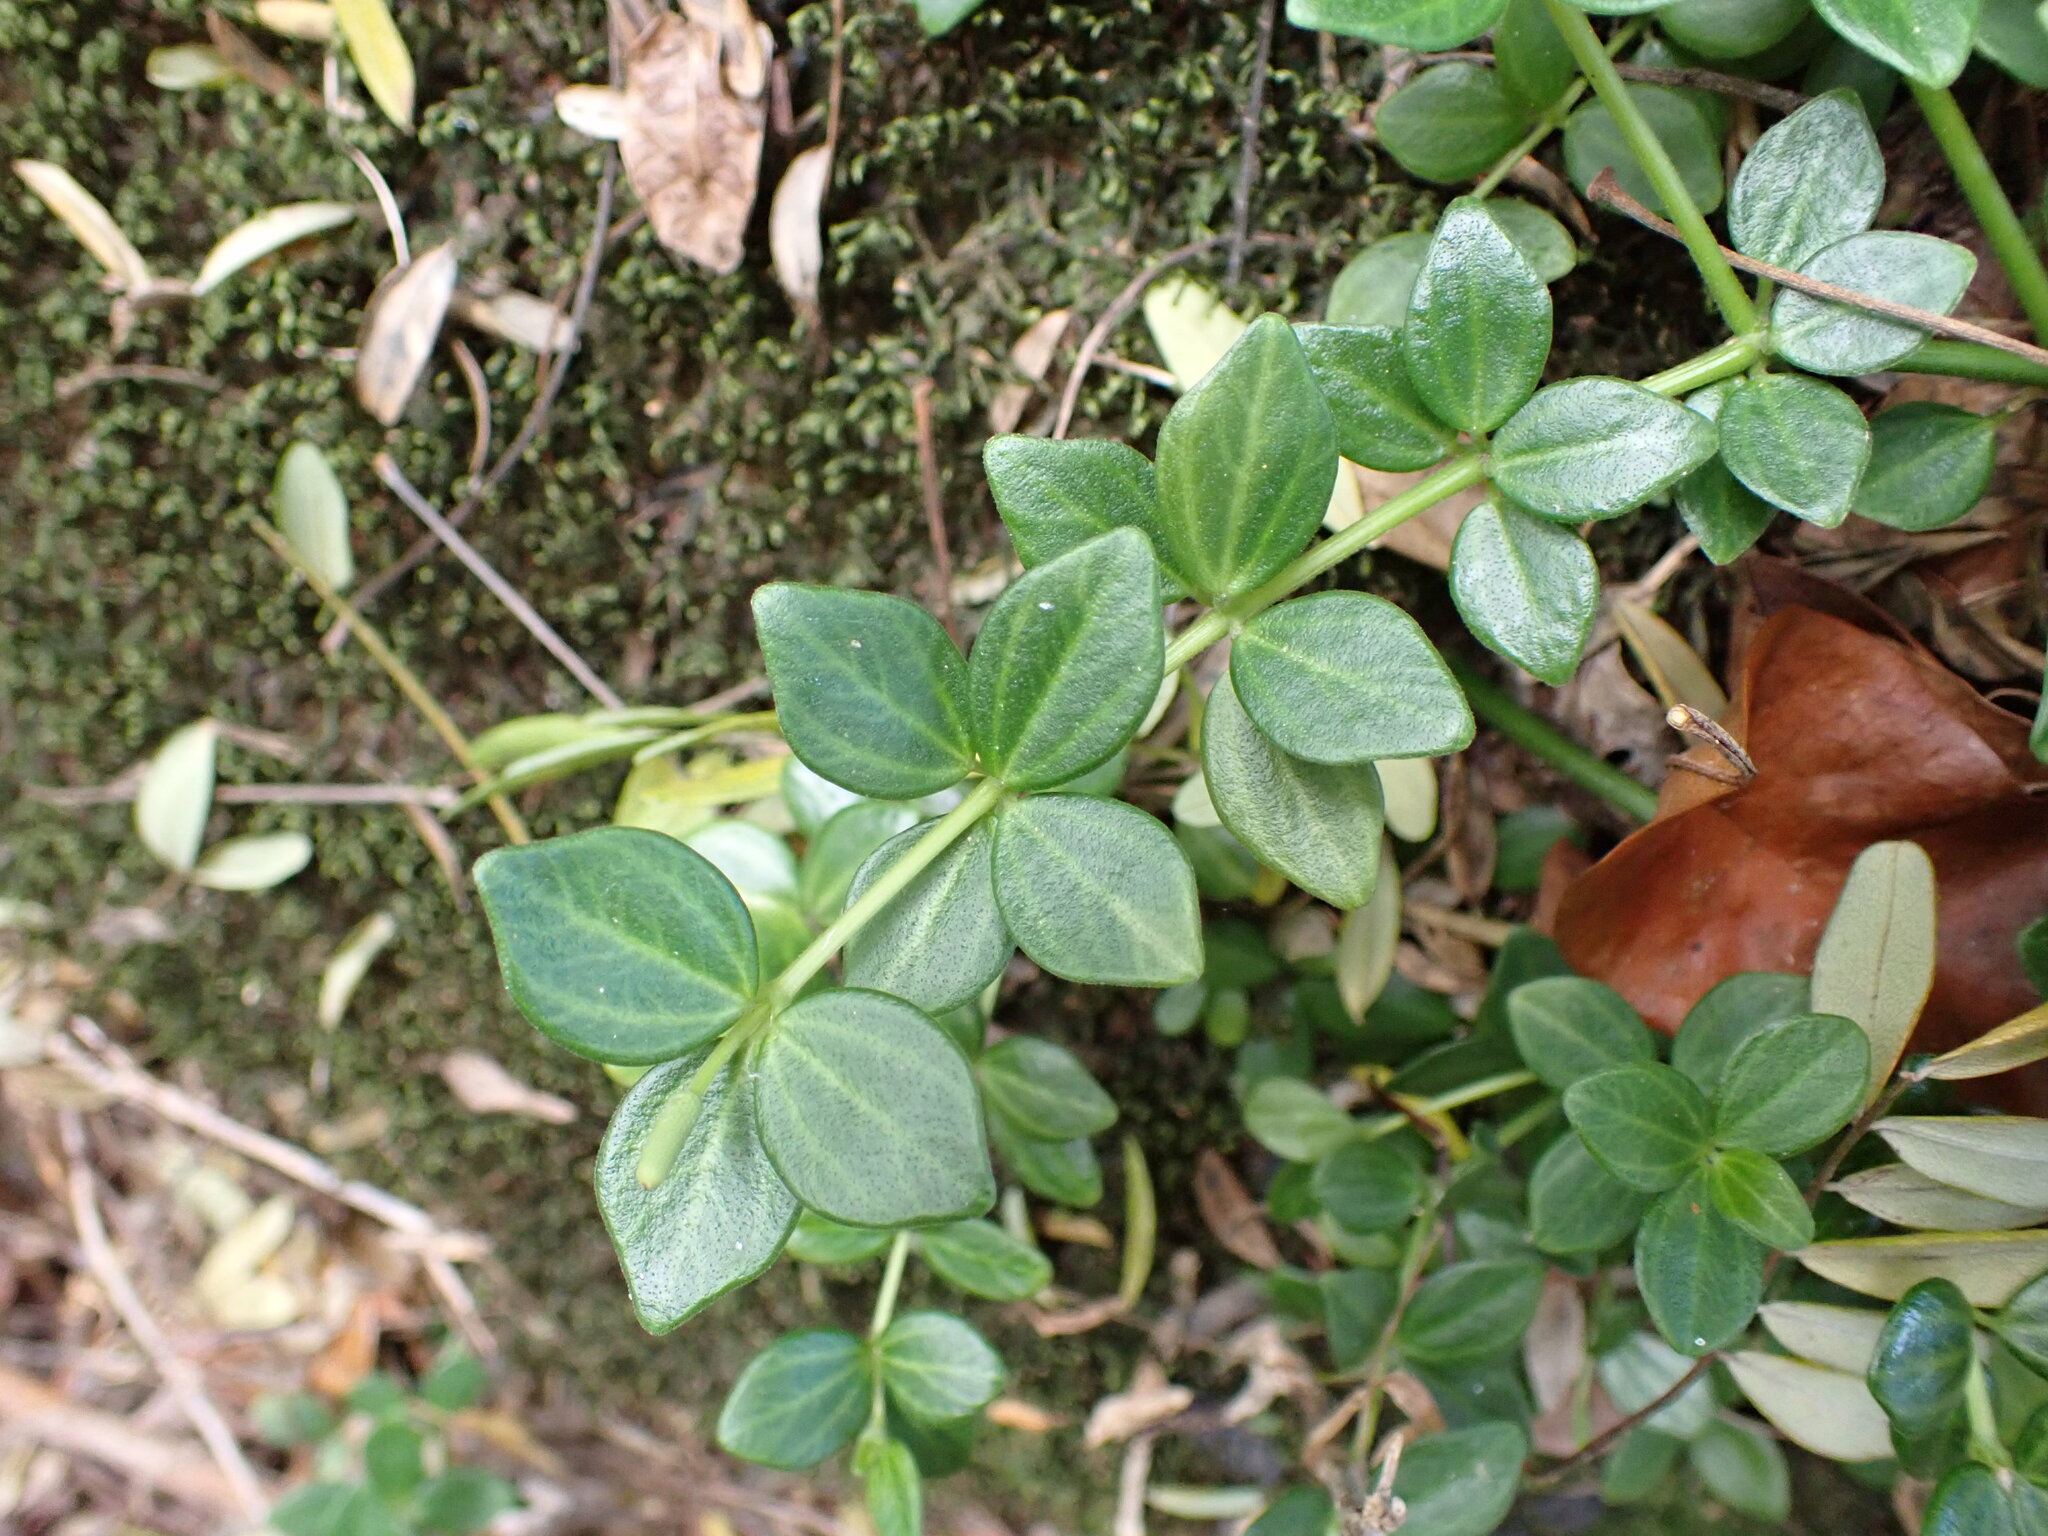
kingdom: Plantae
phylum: Tracheophyta
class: Magnoliopsida
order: Piperales
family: Piperaceae
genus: Peperomia
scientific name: Peperomia tetraphylla
